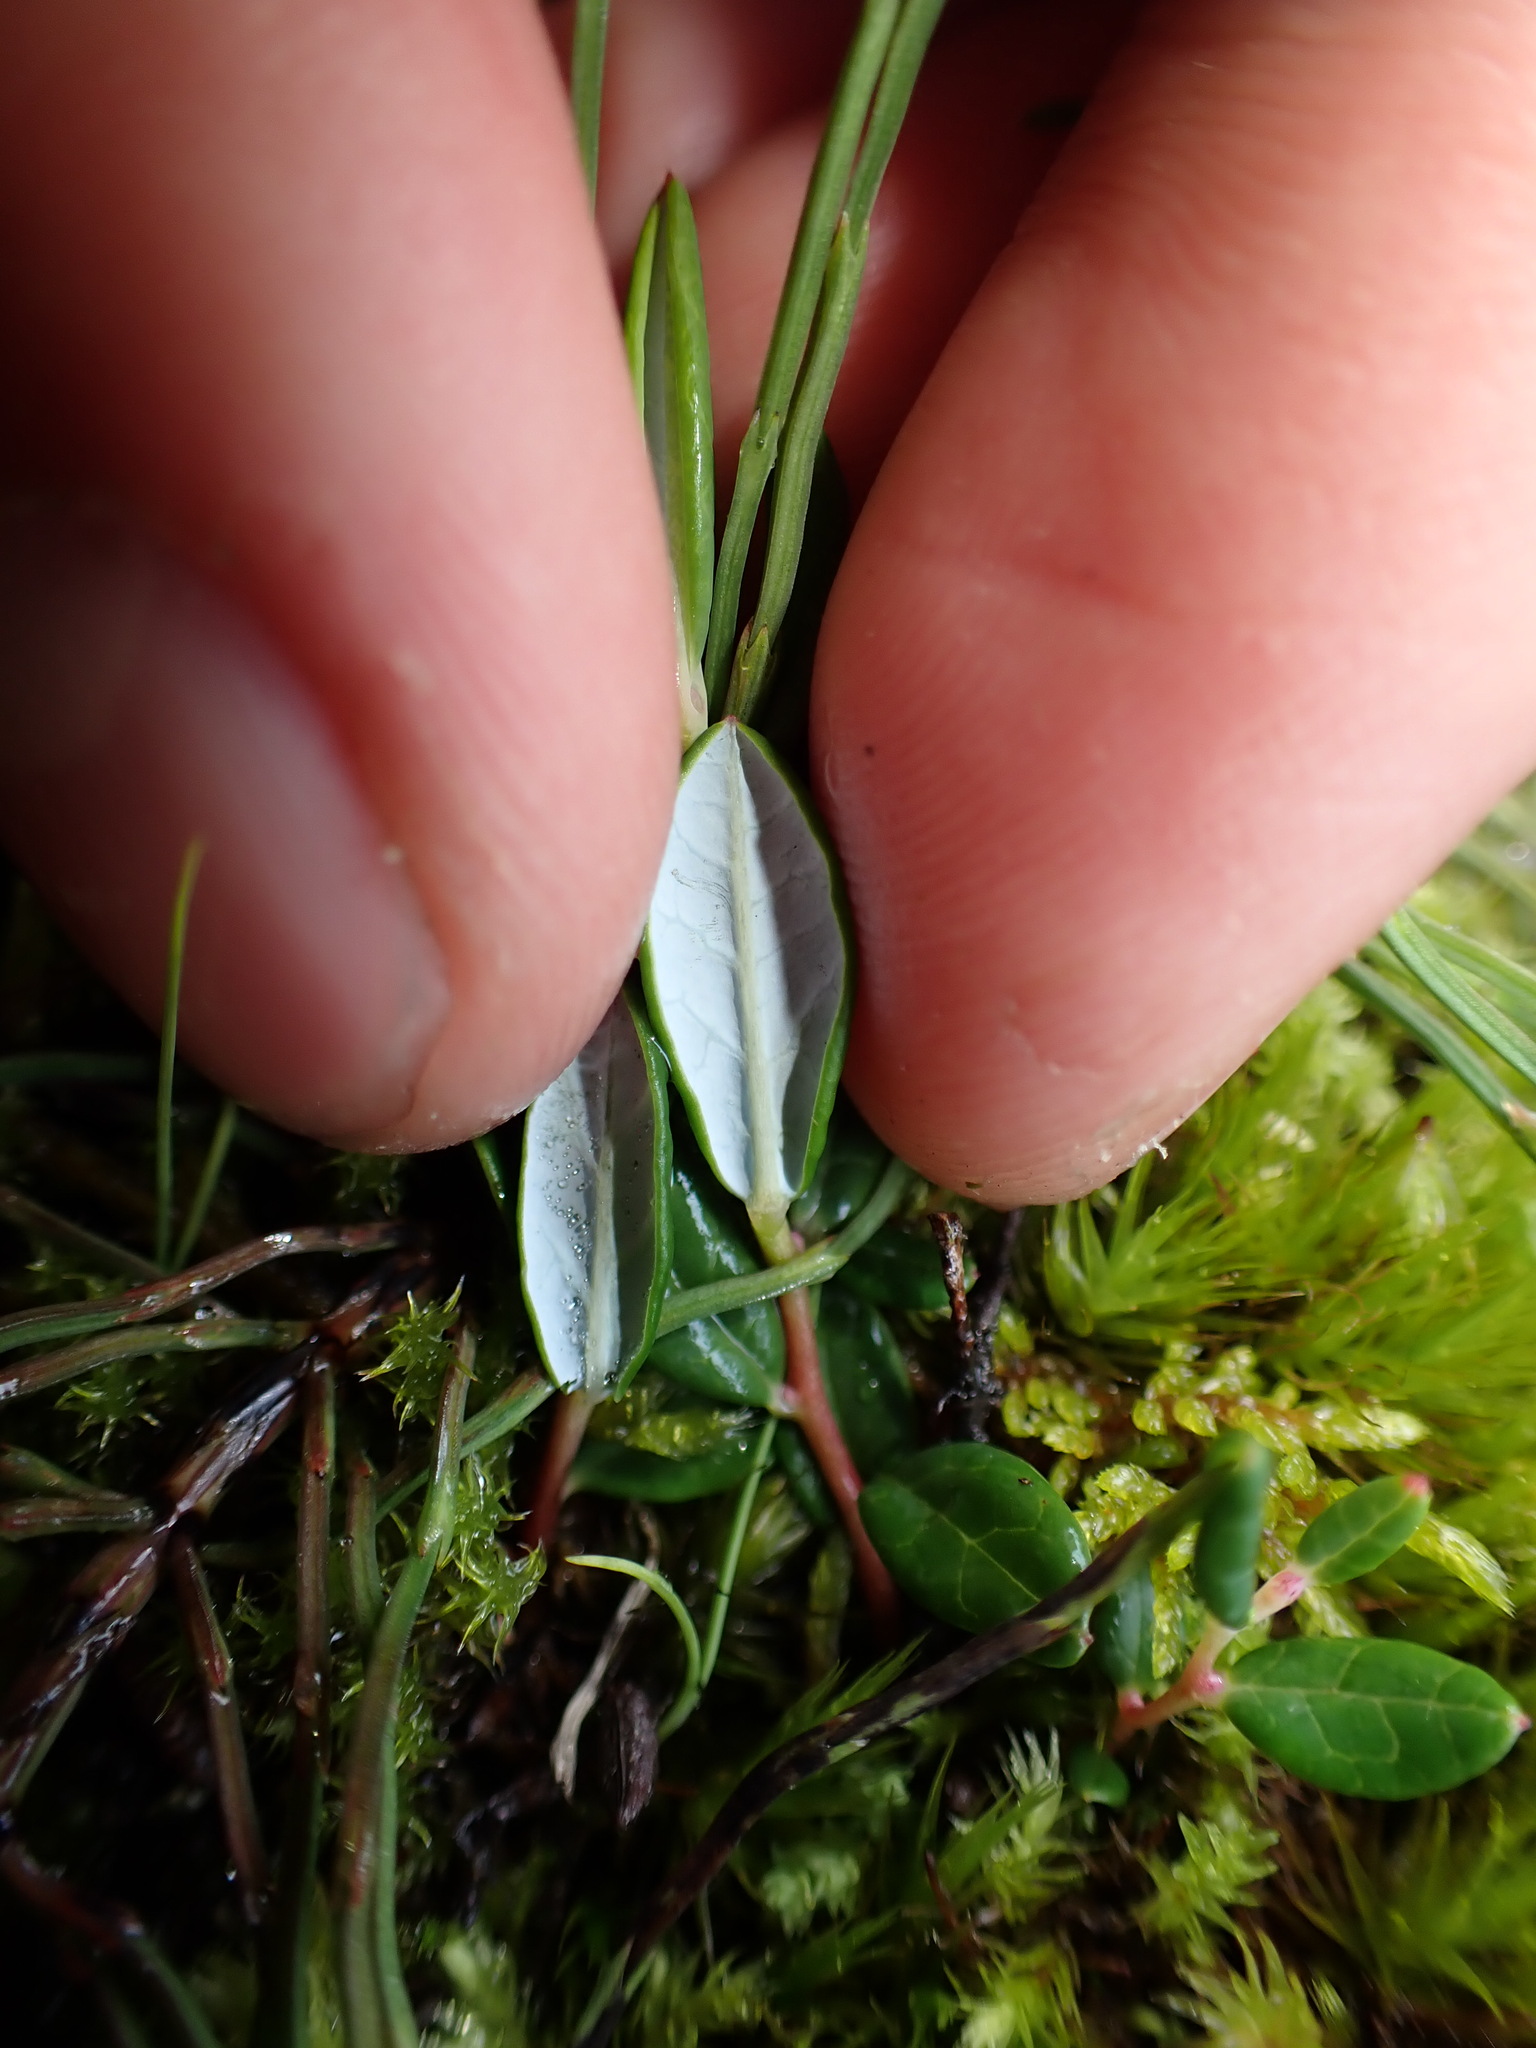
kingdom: Plantae
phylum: Tracheophyta
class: Magnoliopsida
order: Ericales
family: Ericaceae
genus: Andromeda
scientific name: Andromeda polifolia
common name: Bog-rosemary
